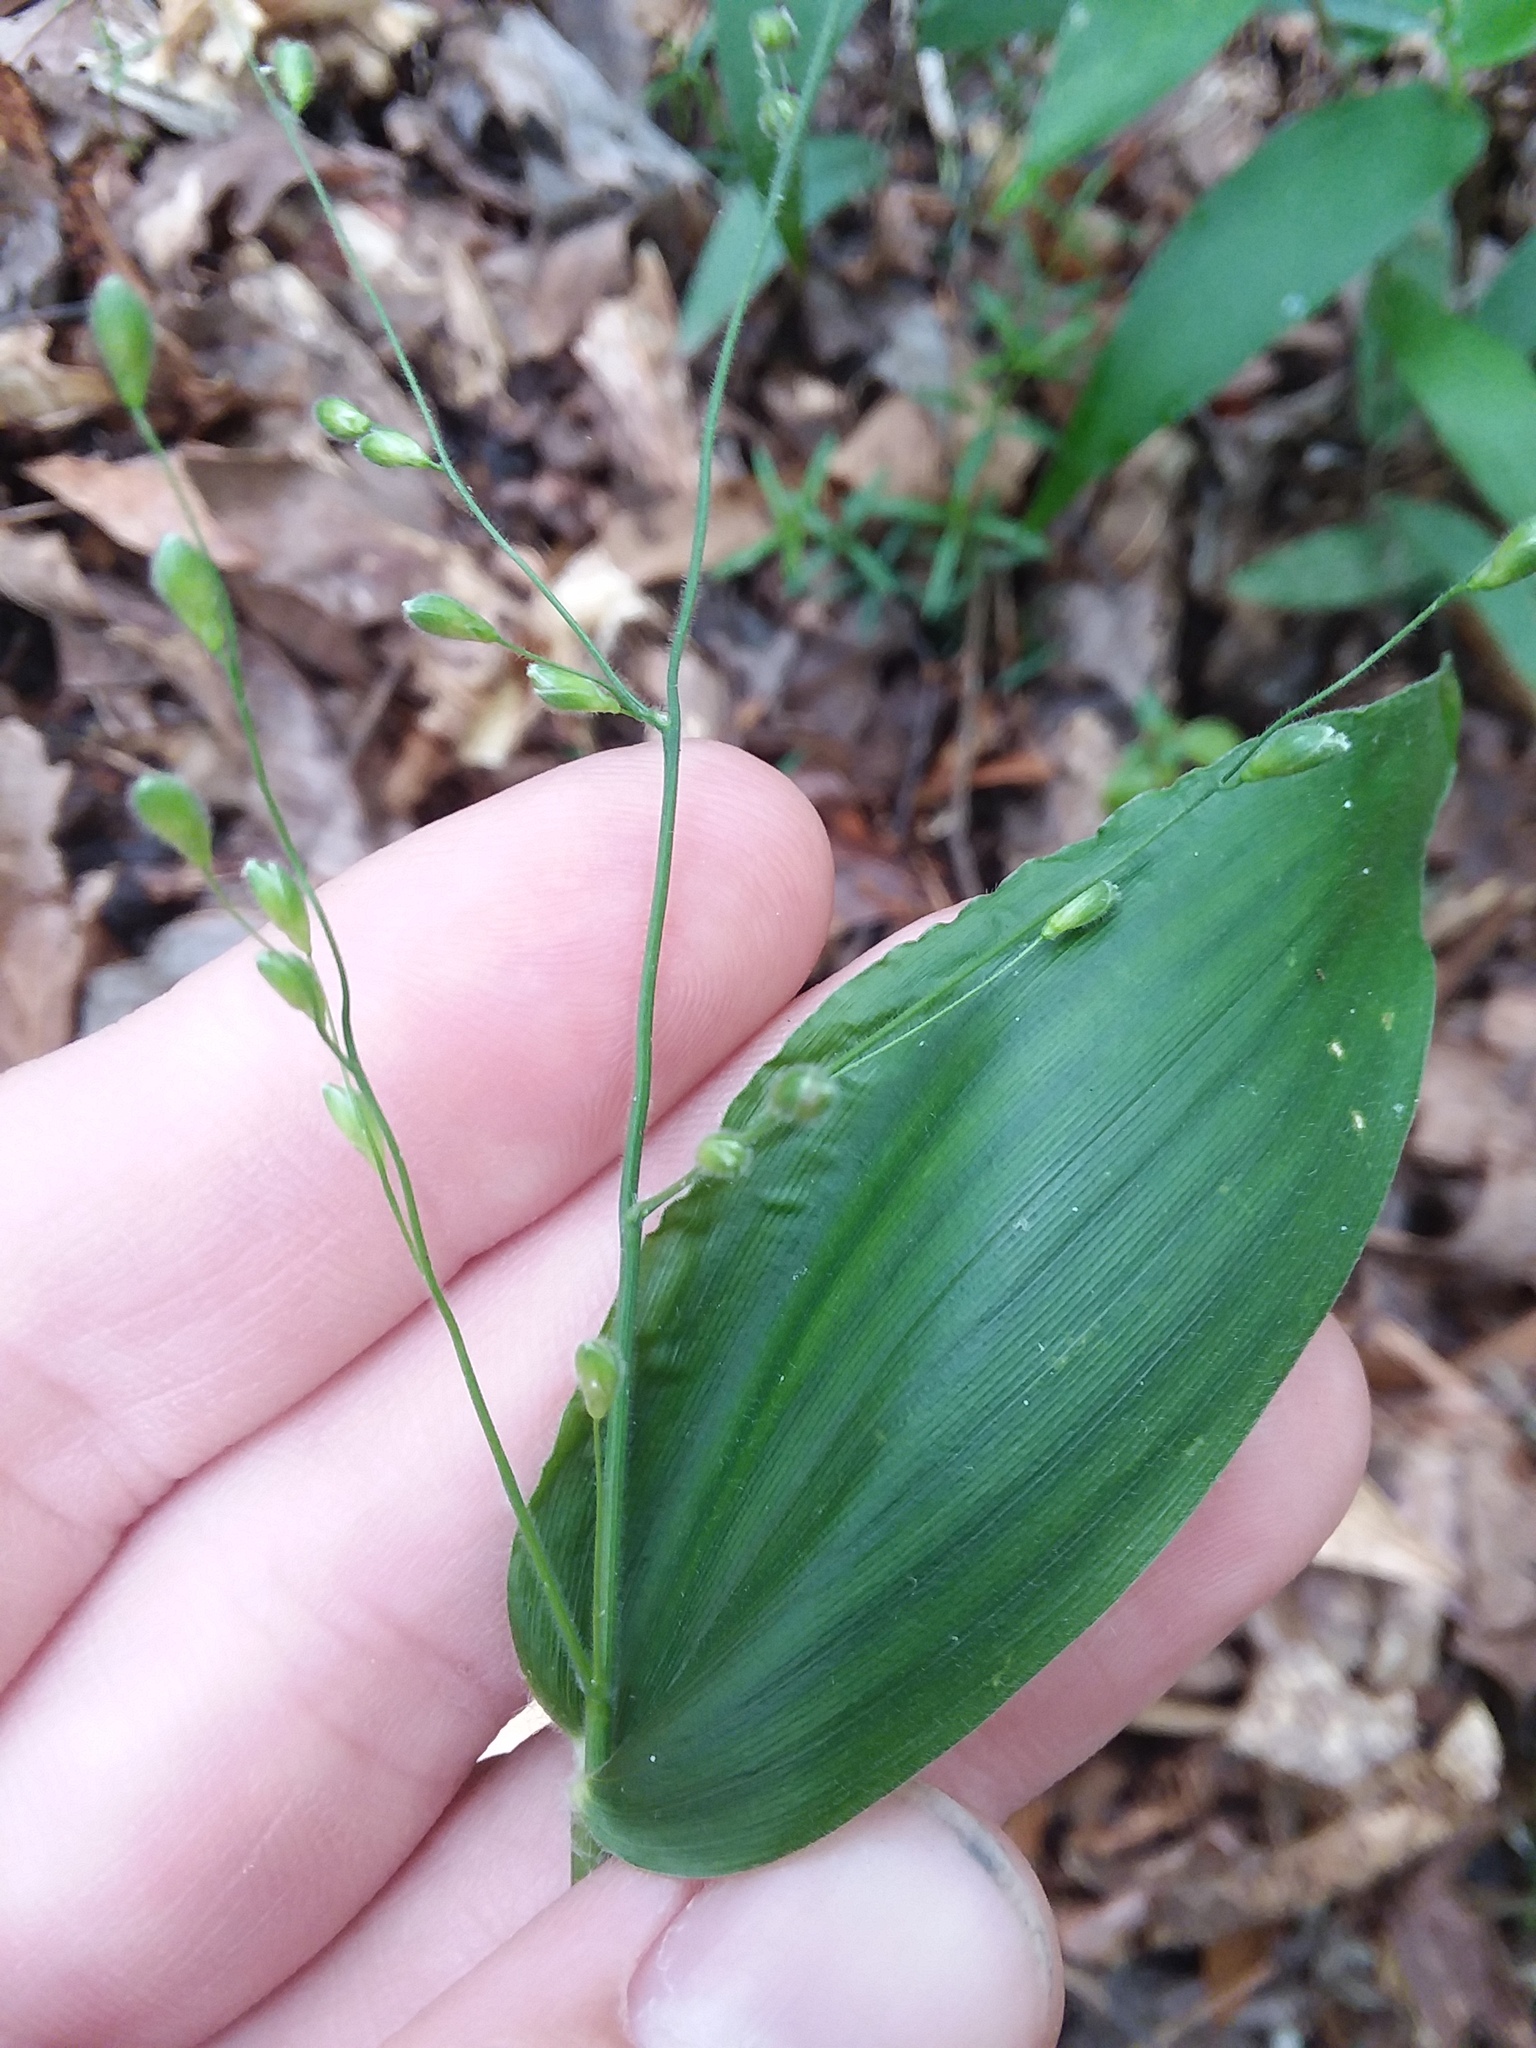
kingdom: Plantae
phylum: Tracheophyta
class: Liliopsida
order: Poales
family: Poaceae
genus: Dichanthelium
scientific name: Dichanthelium boscii
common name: Bosc's panic grass
